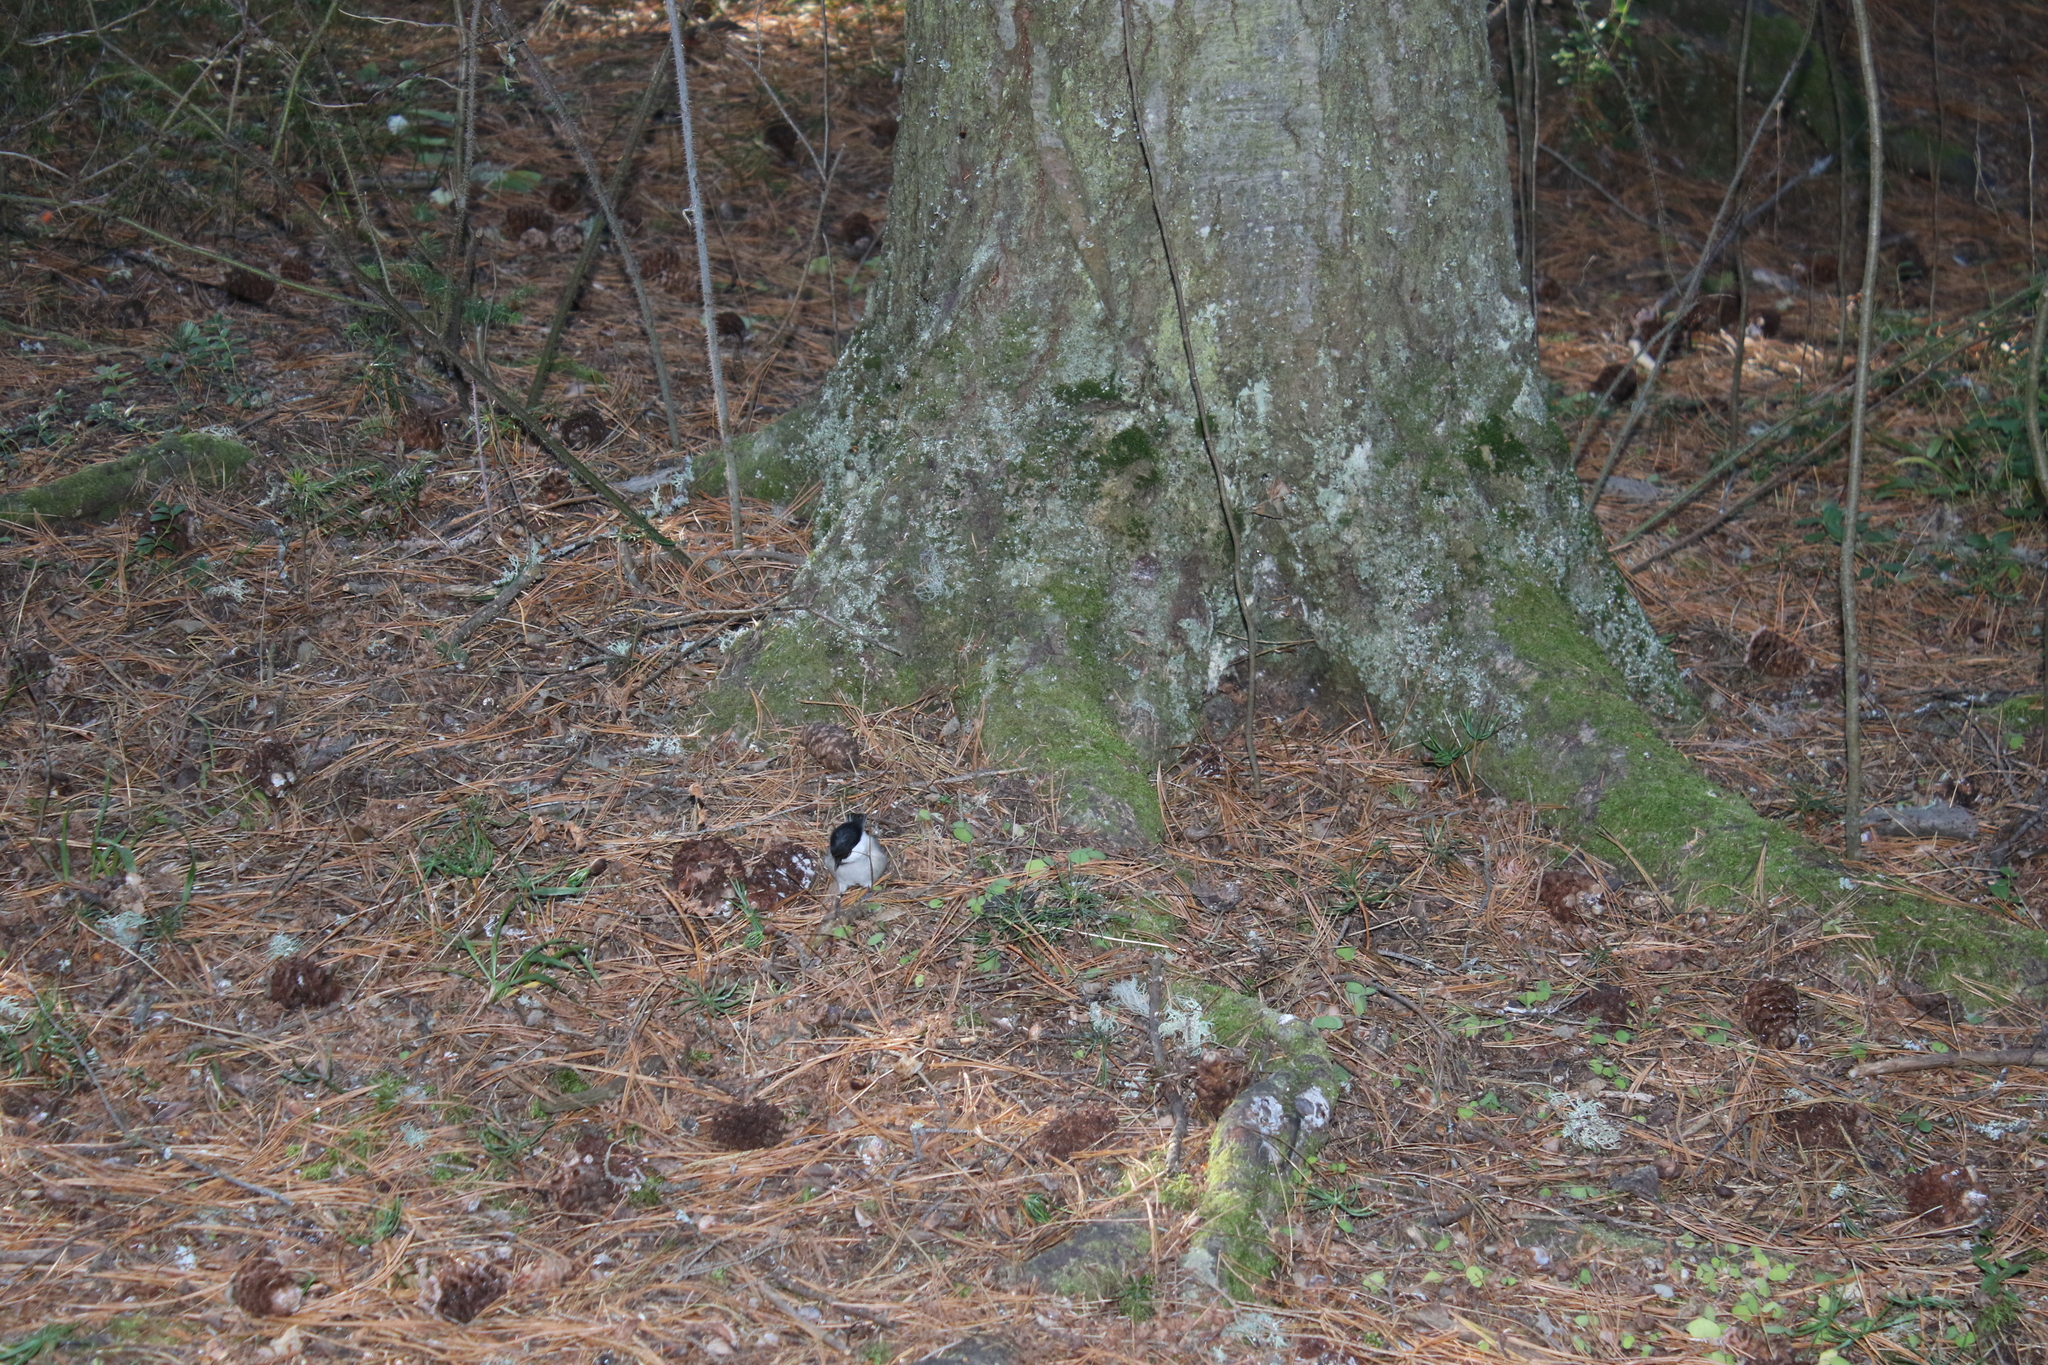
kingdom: Animalia
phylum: Chordata
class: Aves
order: Passeriformes
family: Paridae
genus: Poecile
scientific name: Poecile montanus
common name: Willow tit
